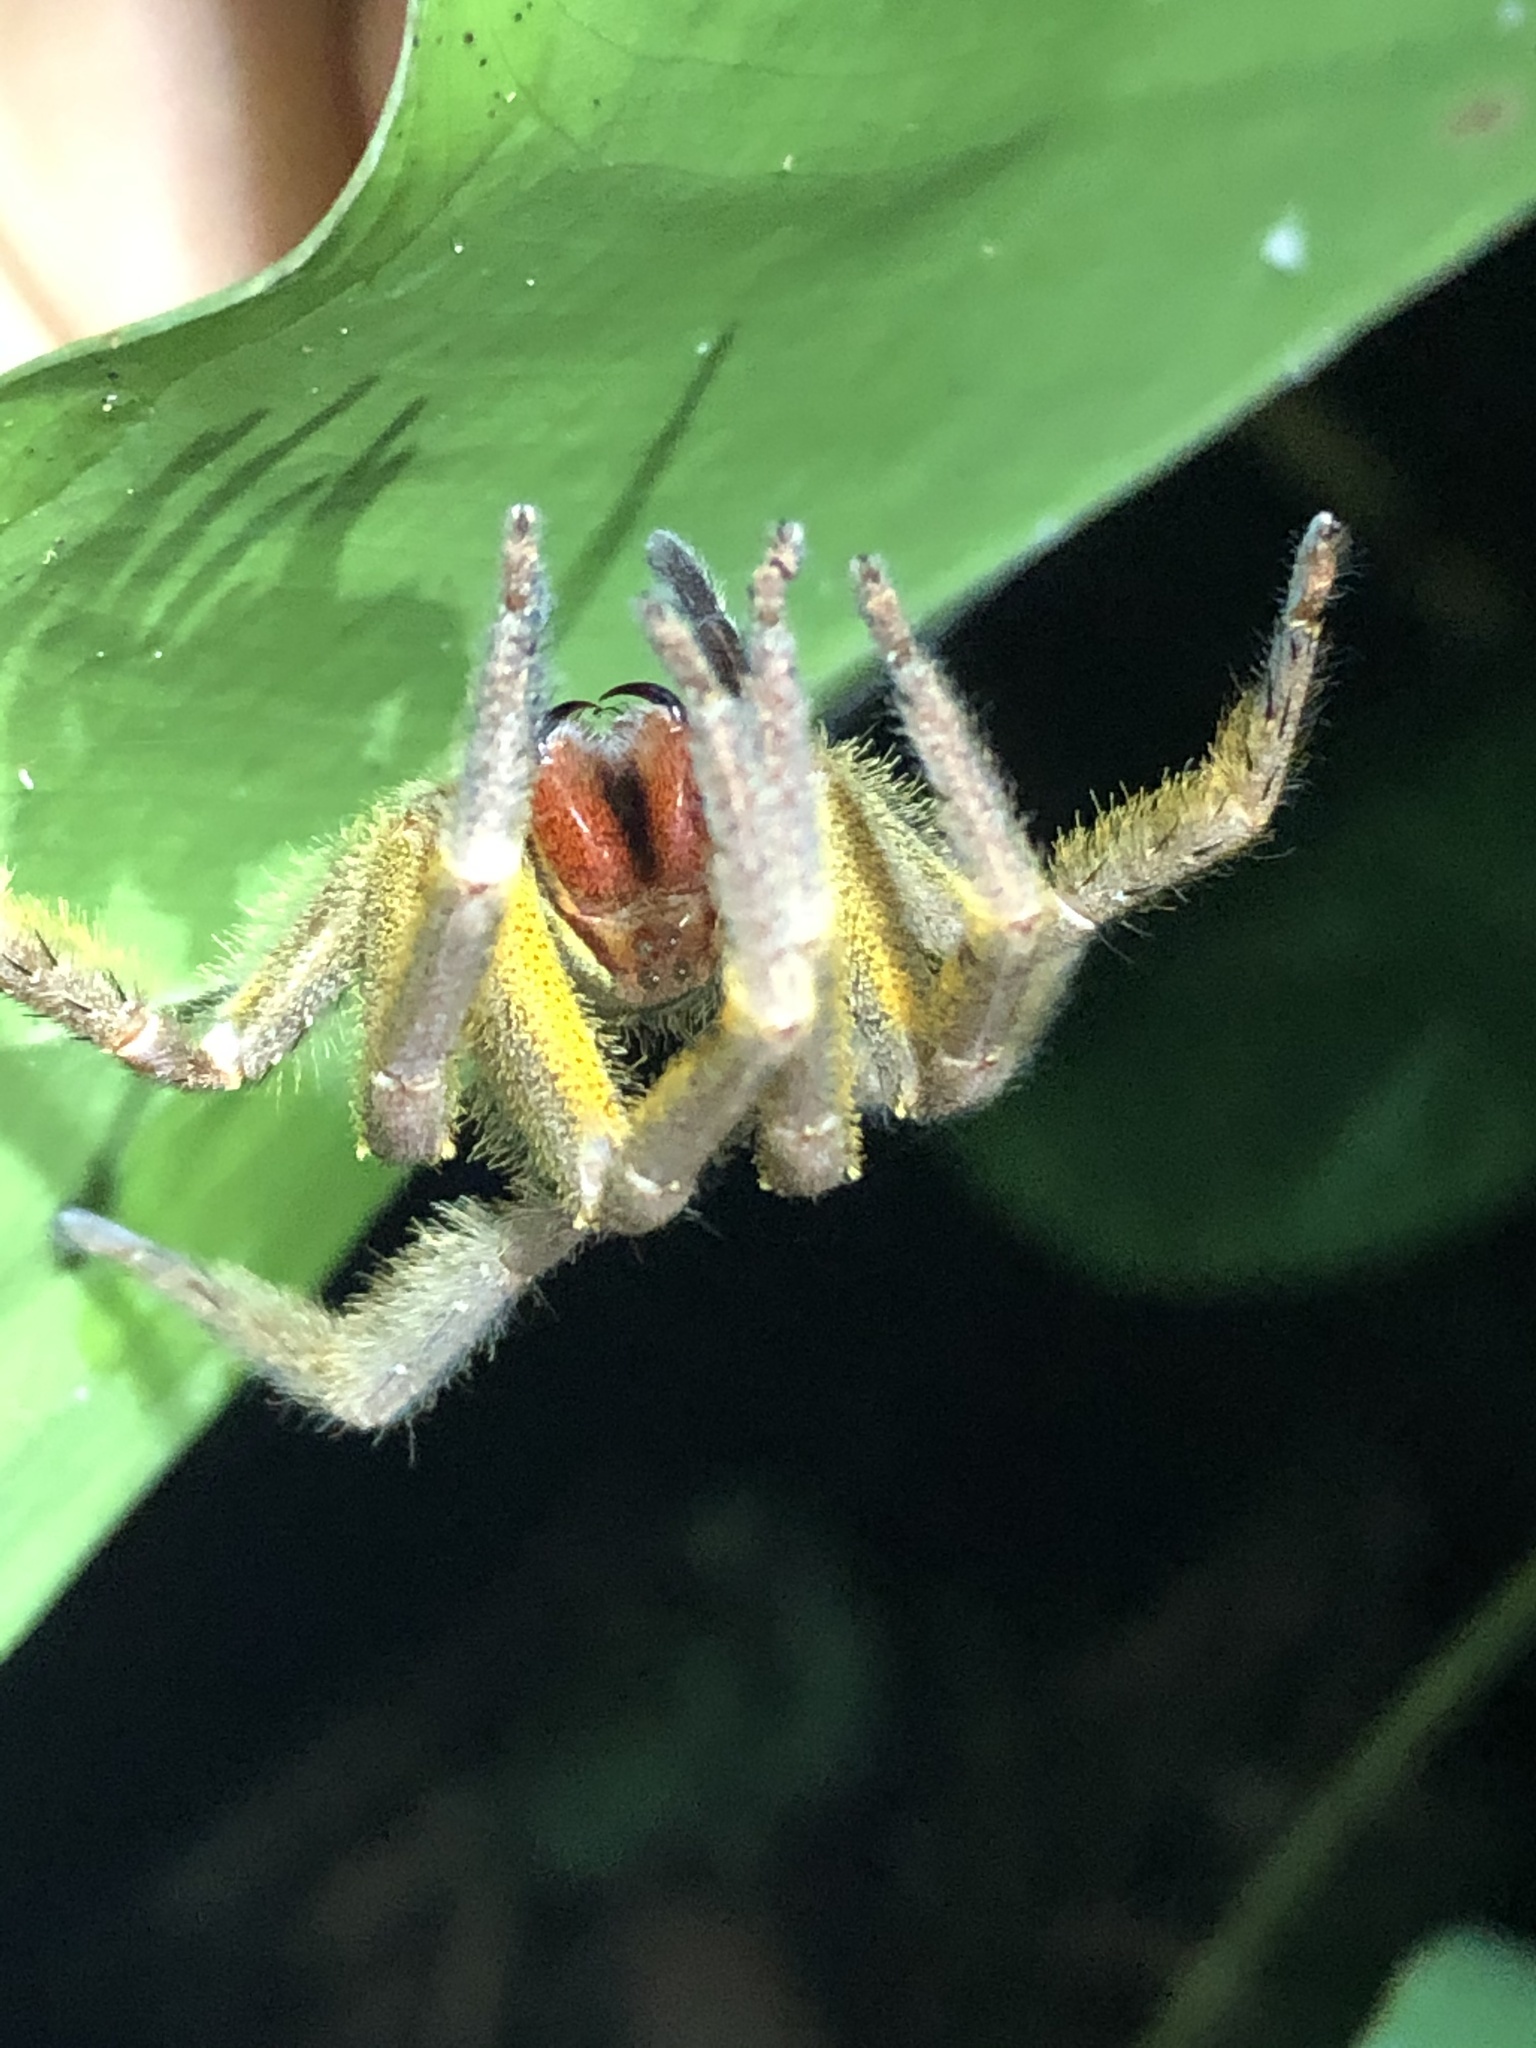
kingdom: Animalia
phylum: Arthropoda
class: Arachnida
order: Araneae
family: Ctenidae
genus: Phoneutria
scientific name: Phoneutria boliviensis
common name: Wandering spiders
